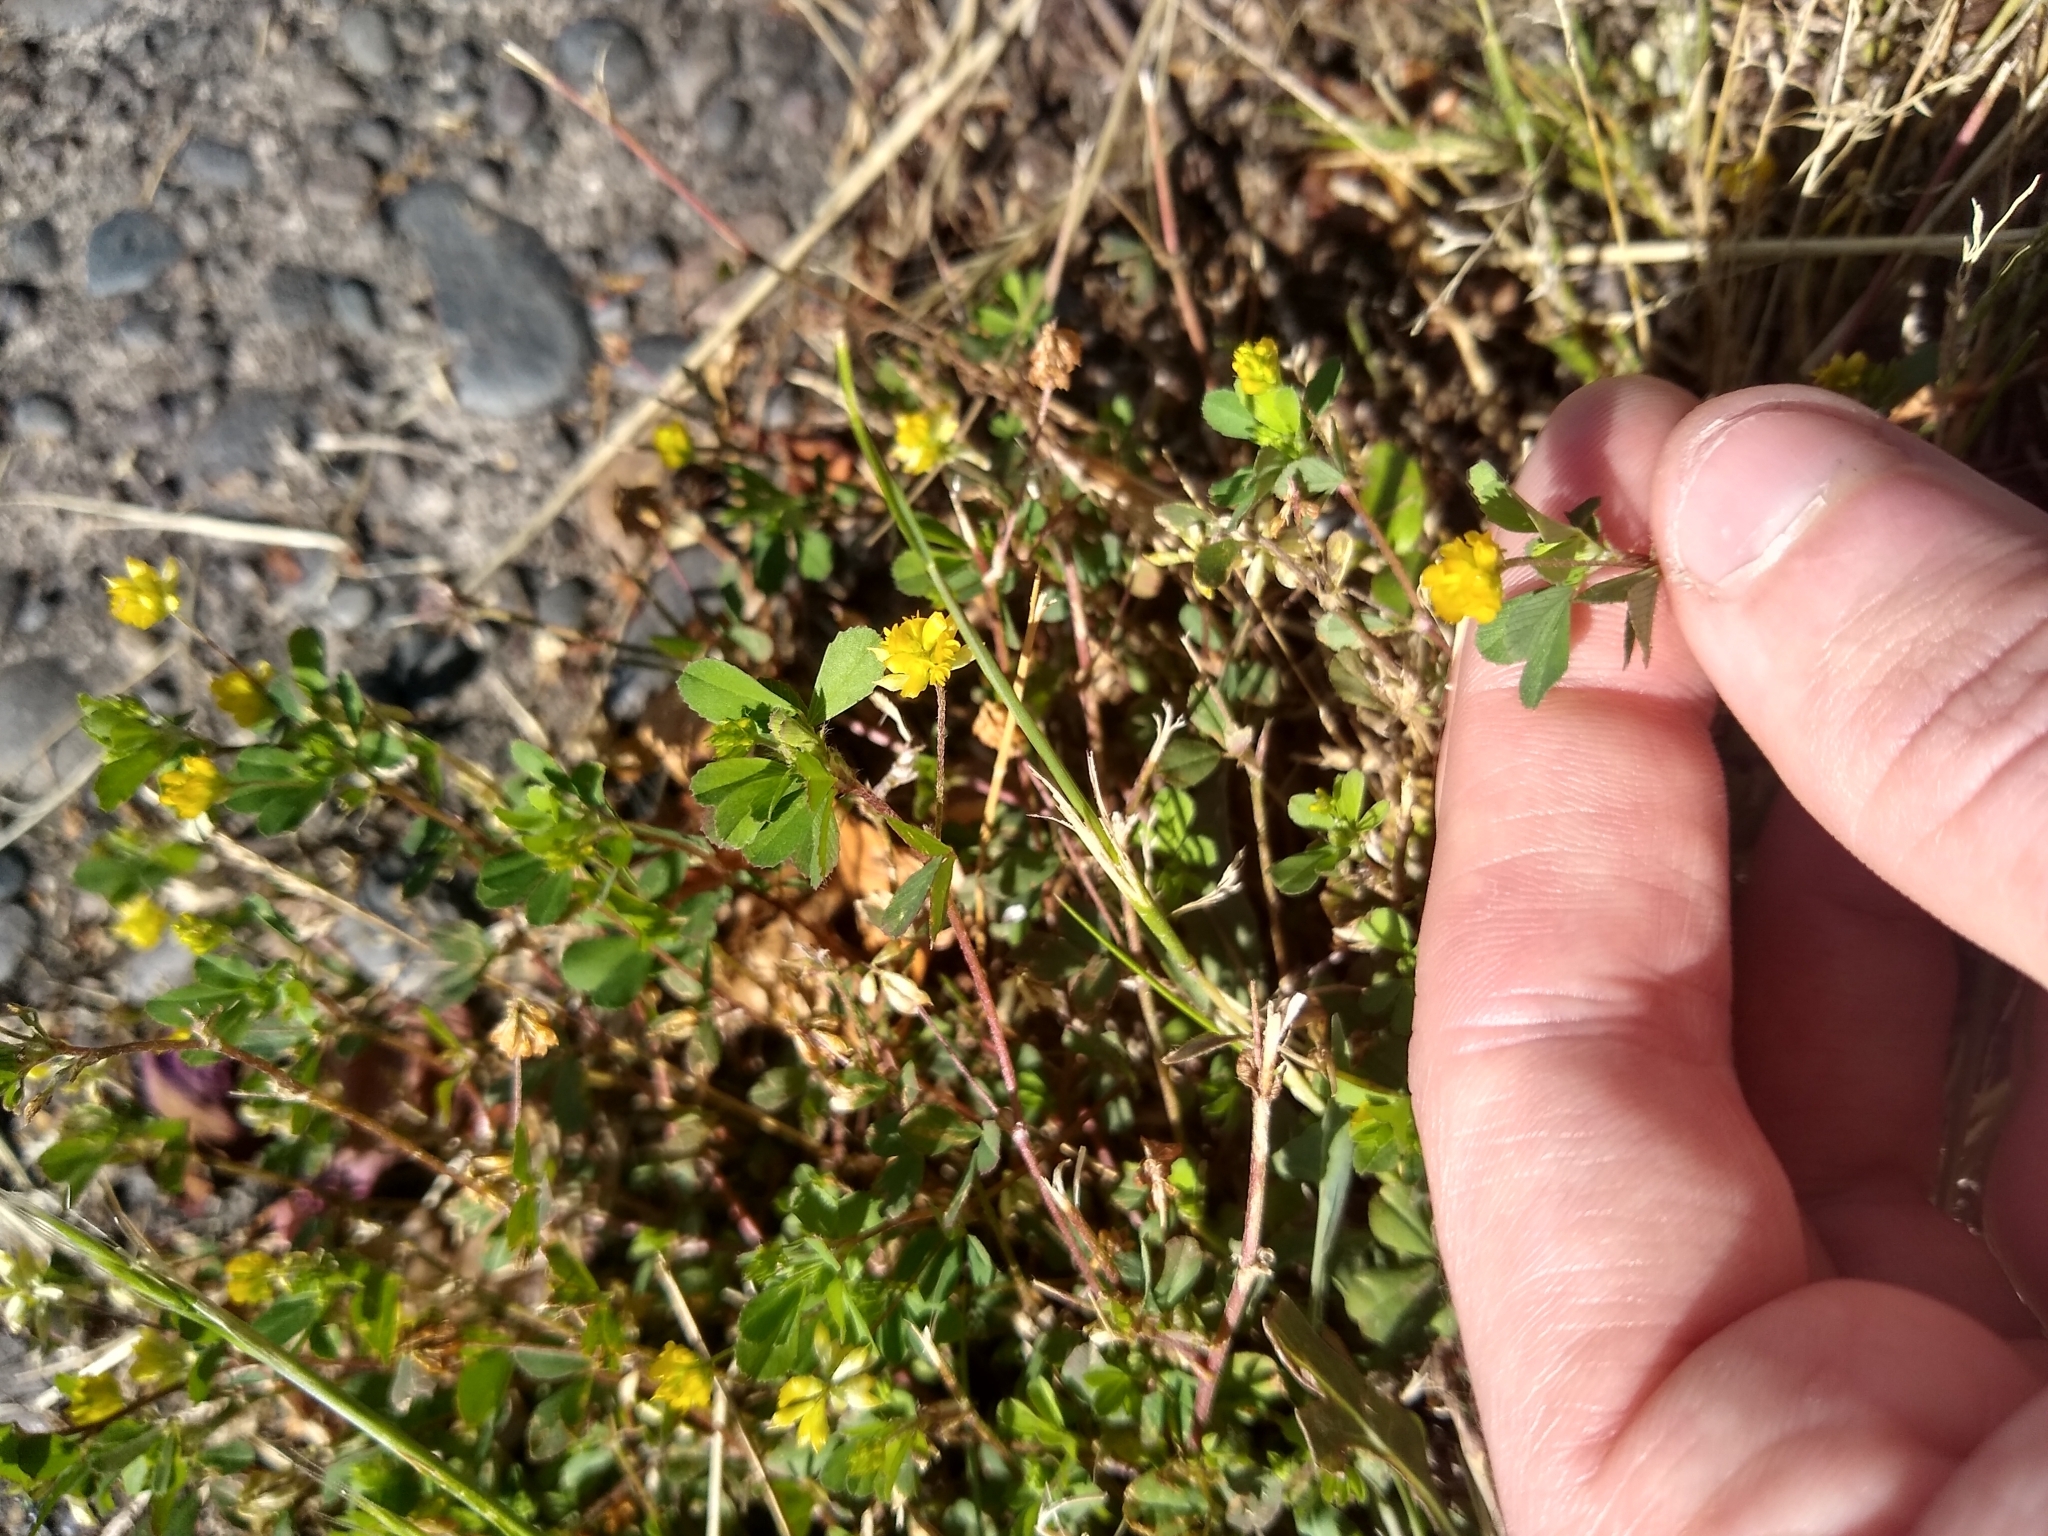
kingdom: Plantae
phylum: Tracheophyta
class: Magnoliopsida
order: Fabales
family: Fabaceae
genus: Trifolium
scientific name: Trifolium dubium
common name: Suckling clover
